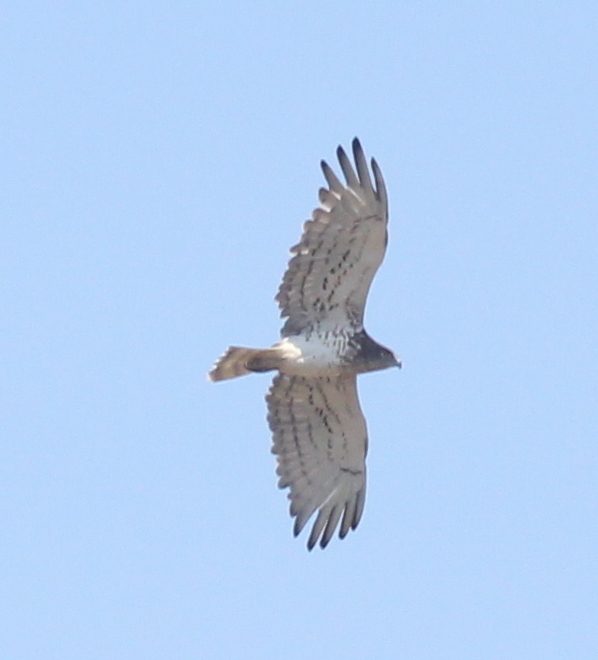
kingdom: Animalia
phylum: Chordata
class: Aves
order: Accipitriformes
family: Accipitridae
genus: Circaetus
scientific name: Circaetus gallicus
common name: Short-toed snake eagle
